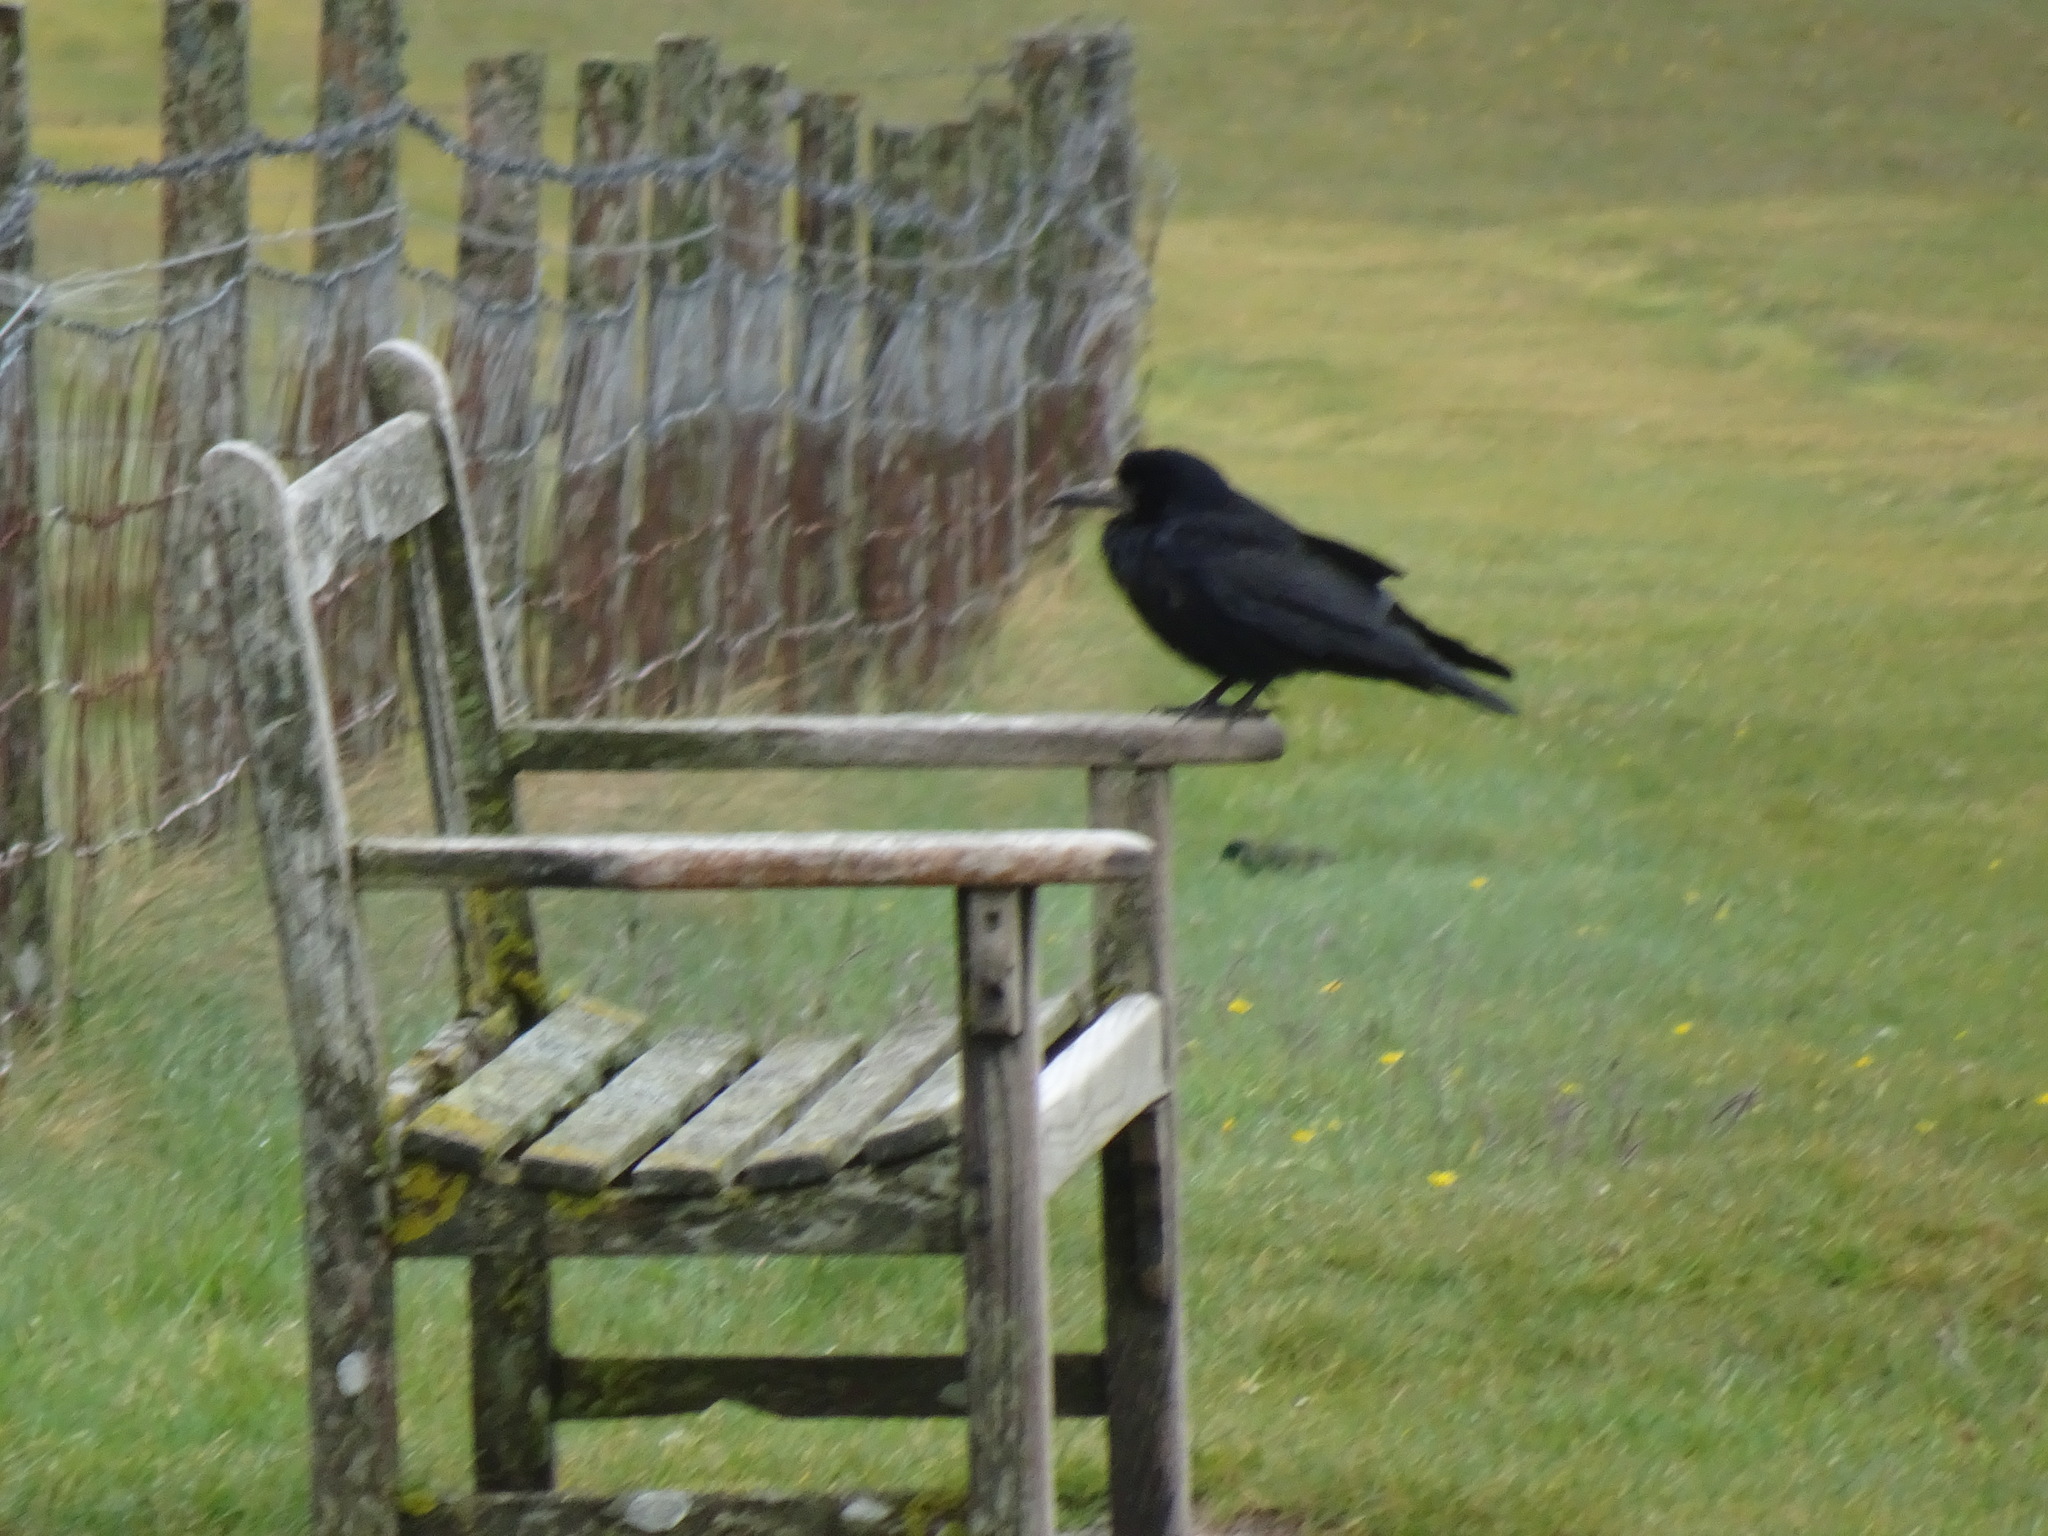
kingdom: Animalia
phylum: Chordata
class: Aves
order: Passeriformes
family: Corvidae
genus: Corvus
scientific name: Corvus frugilegus
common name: Rook
